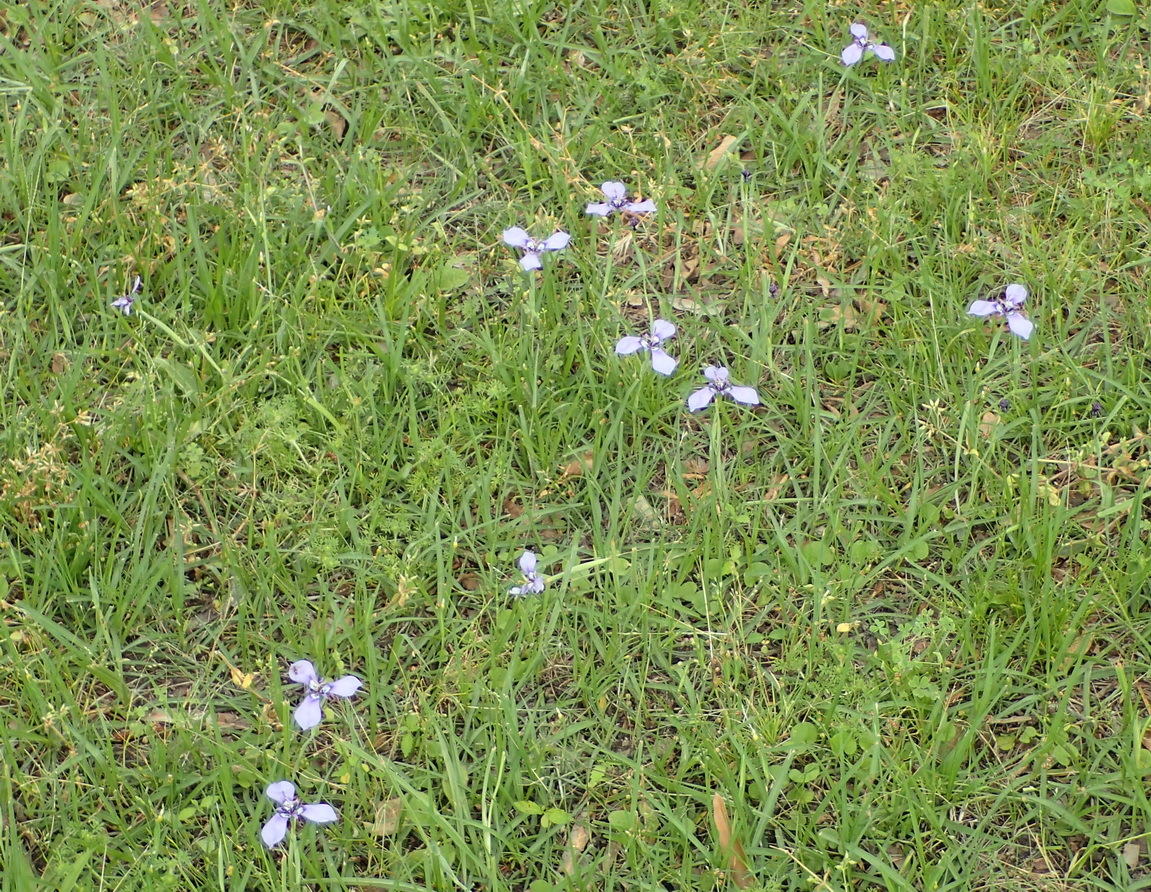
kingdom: Plantae
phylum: Tracheophyta
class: Liliopsida
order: Asparagales
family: Iridaceae
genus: Herbertia
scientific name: Herbertia lahue
